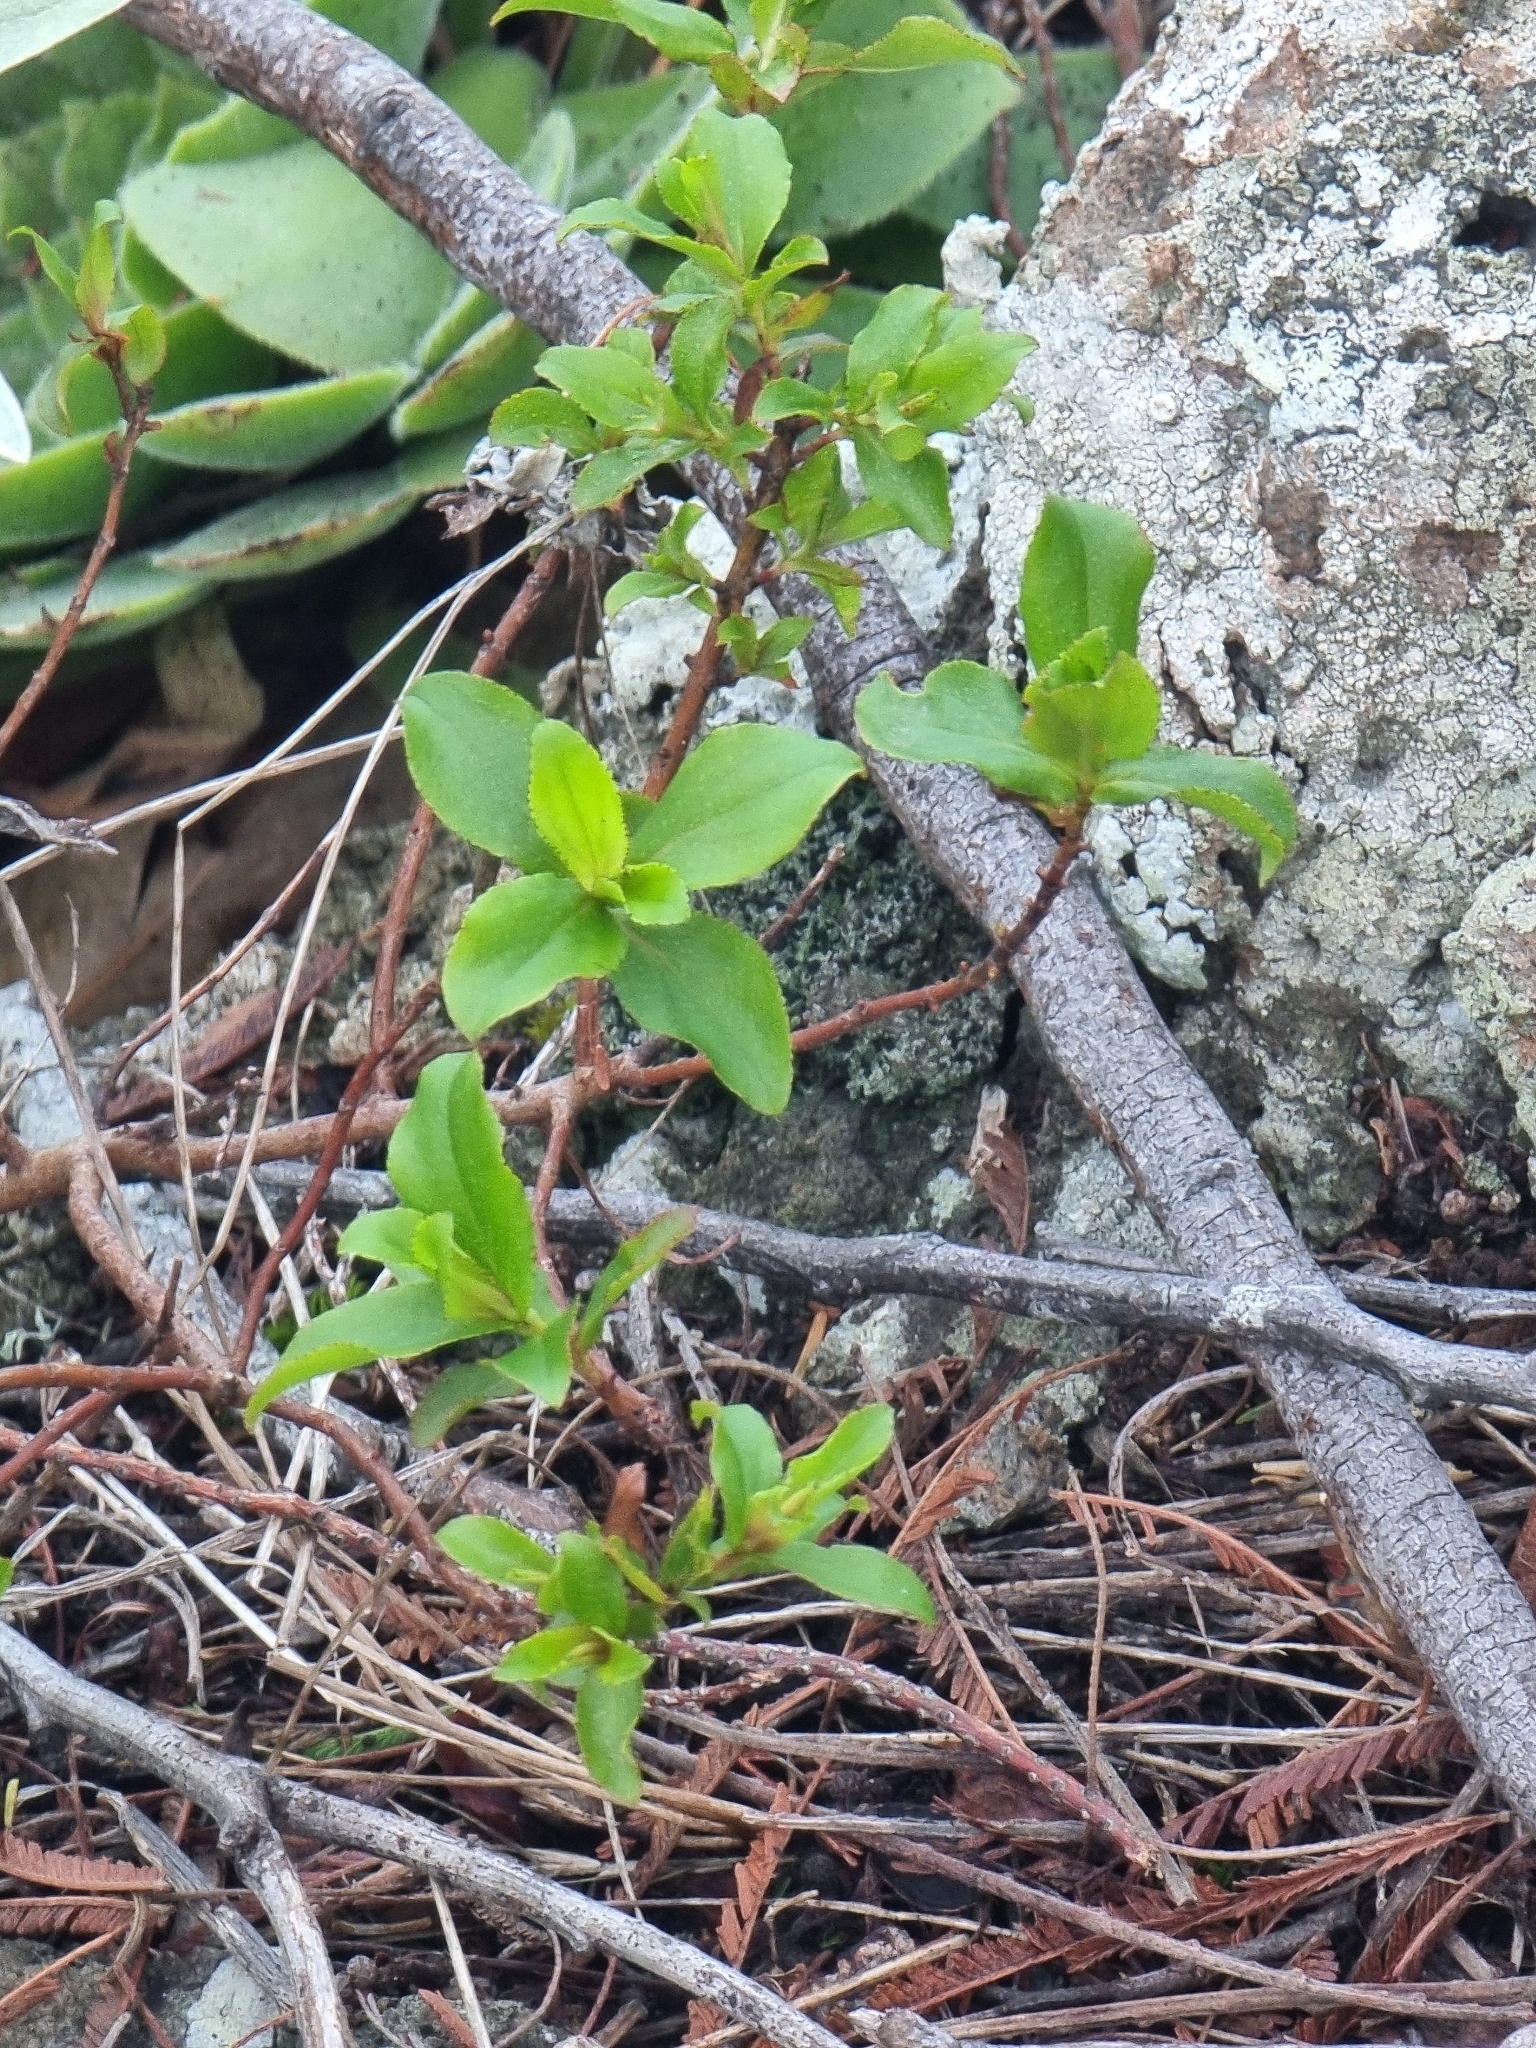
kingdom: Plantae
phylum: Tracheophyta
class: Magnoliopsida
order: Malpighiales
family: Hypericaceae
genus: Hypericum
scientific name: Hypericum glandulosum
